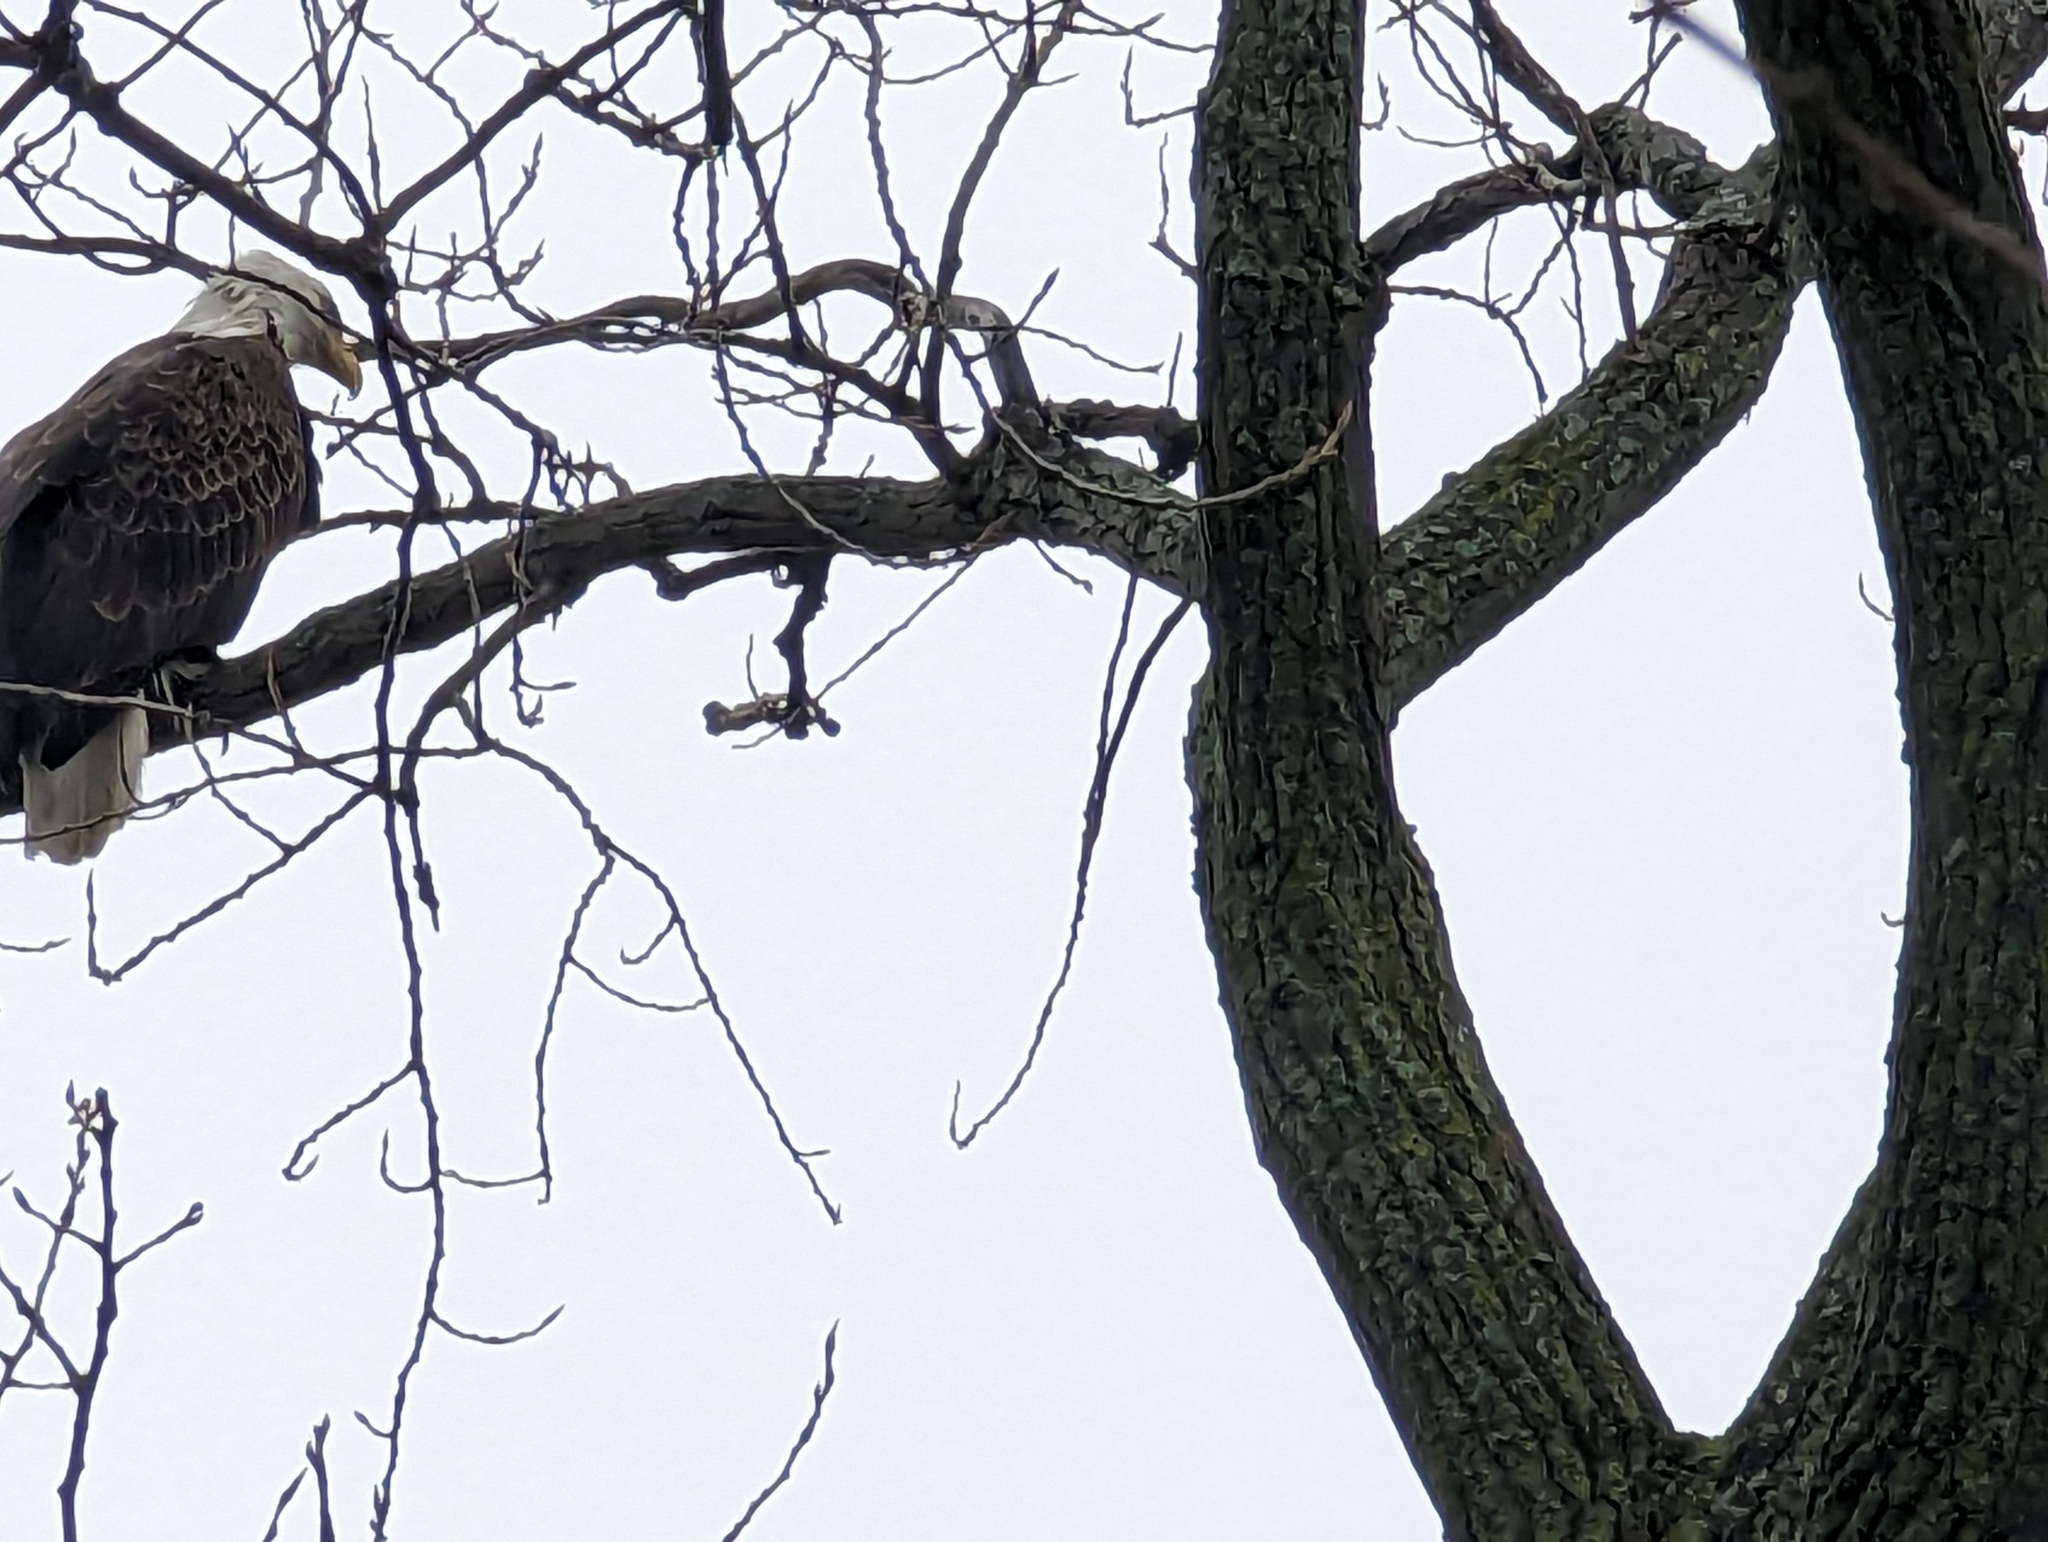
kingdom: Animalia
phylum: Chordata
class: Aves
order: Accipitriformes
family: Accipitridae
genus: Haliaeetus
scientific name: Haliaeetus leucocephalus
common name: Bald eagle
